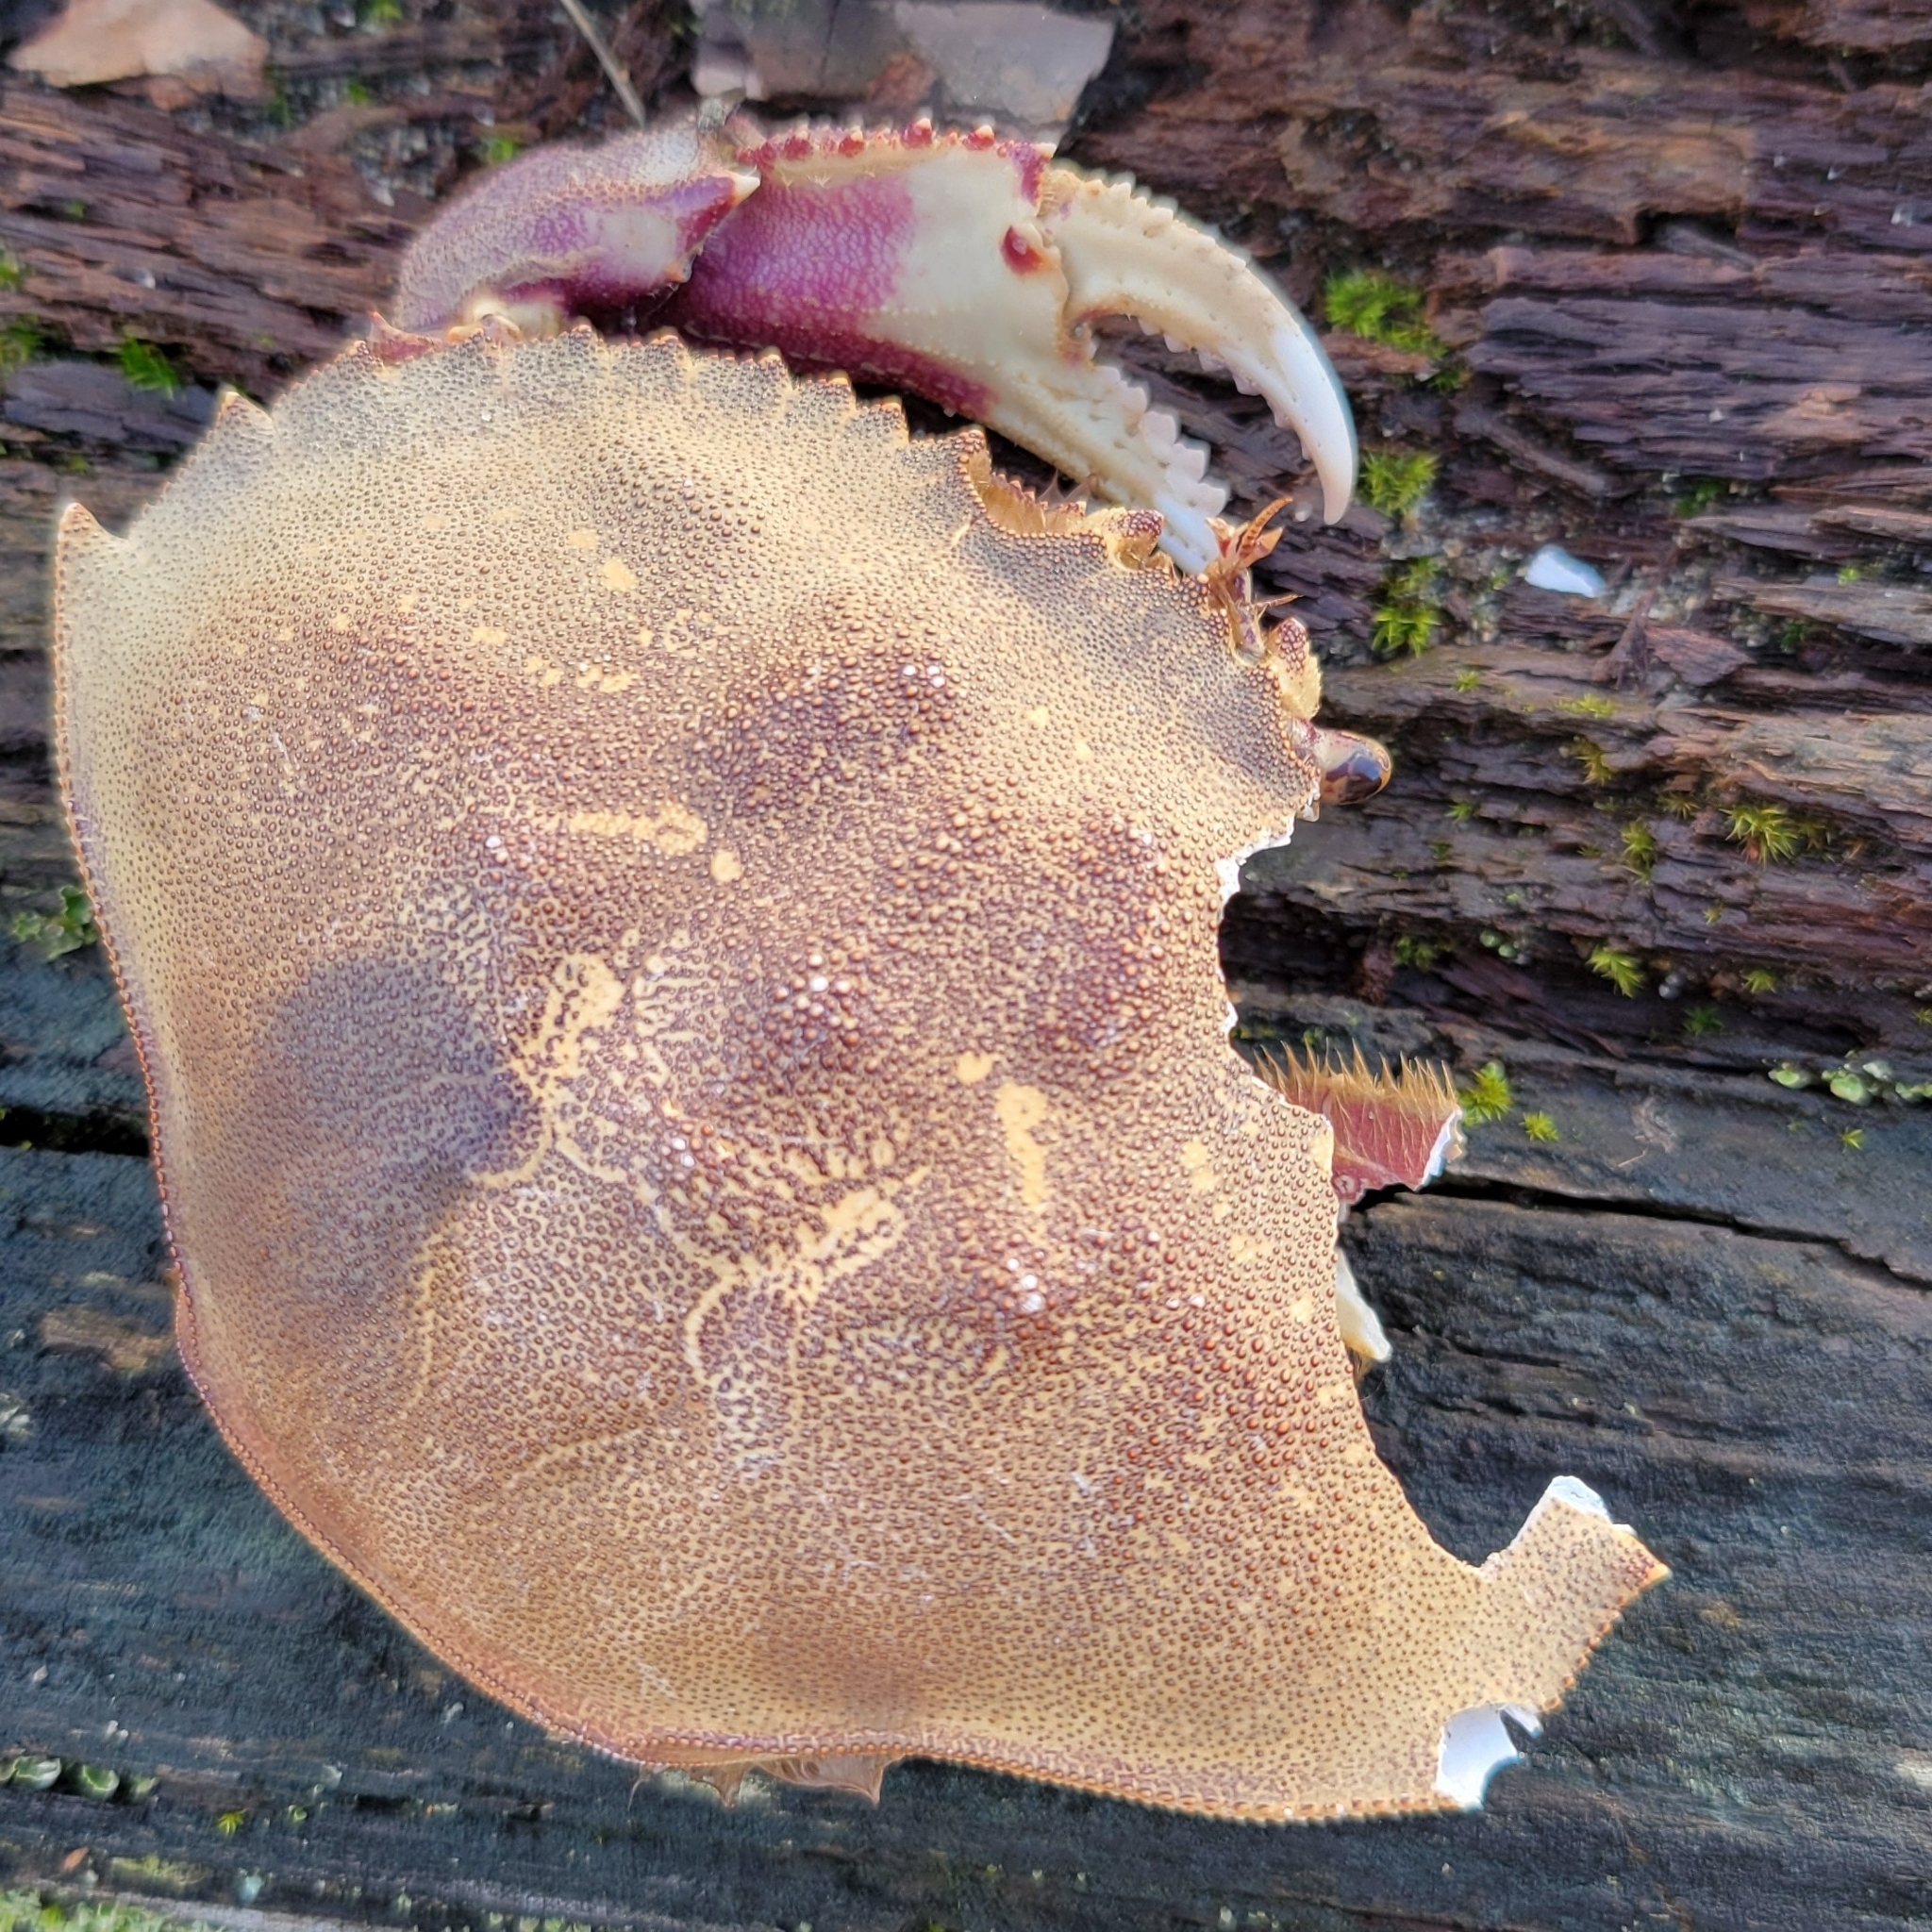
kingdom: Animalia
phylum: Arthropoda
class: Malacostraca
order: Decapoda
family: Cancridae
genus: Metacarcinus
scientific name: Metacarcinus magister
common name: Californian crab
